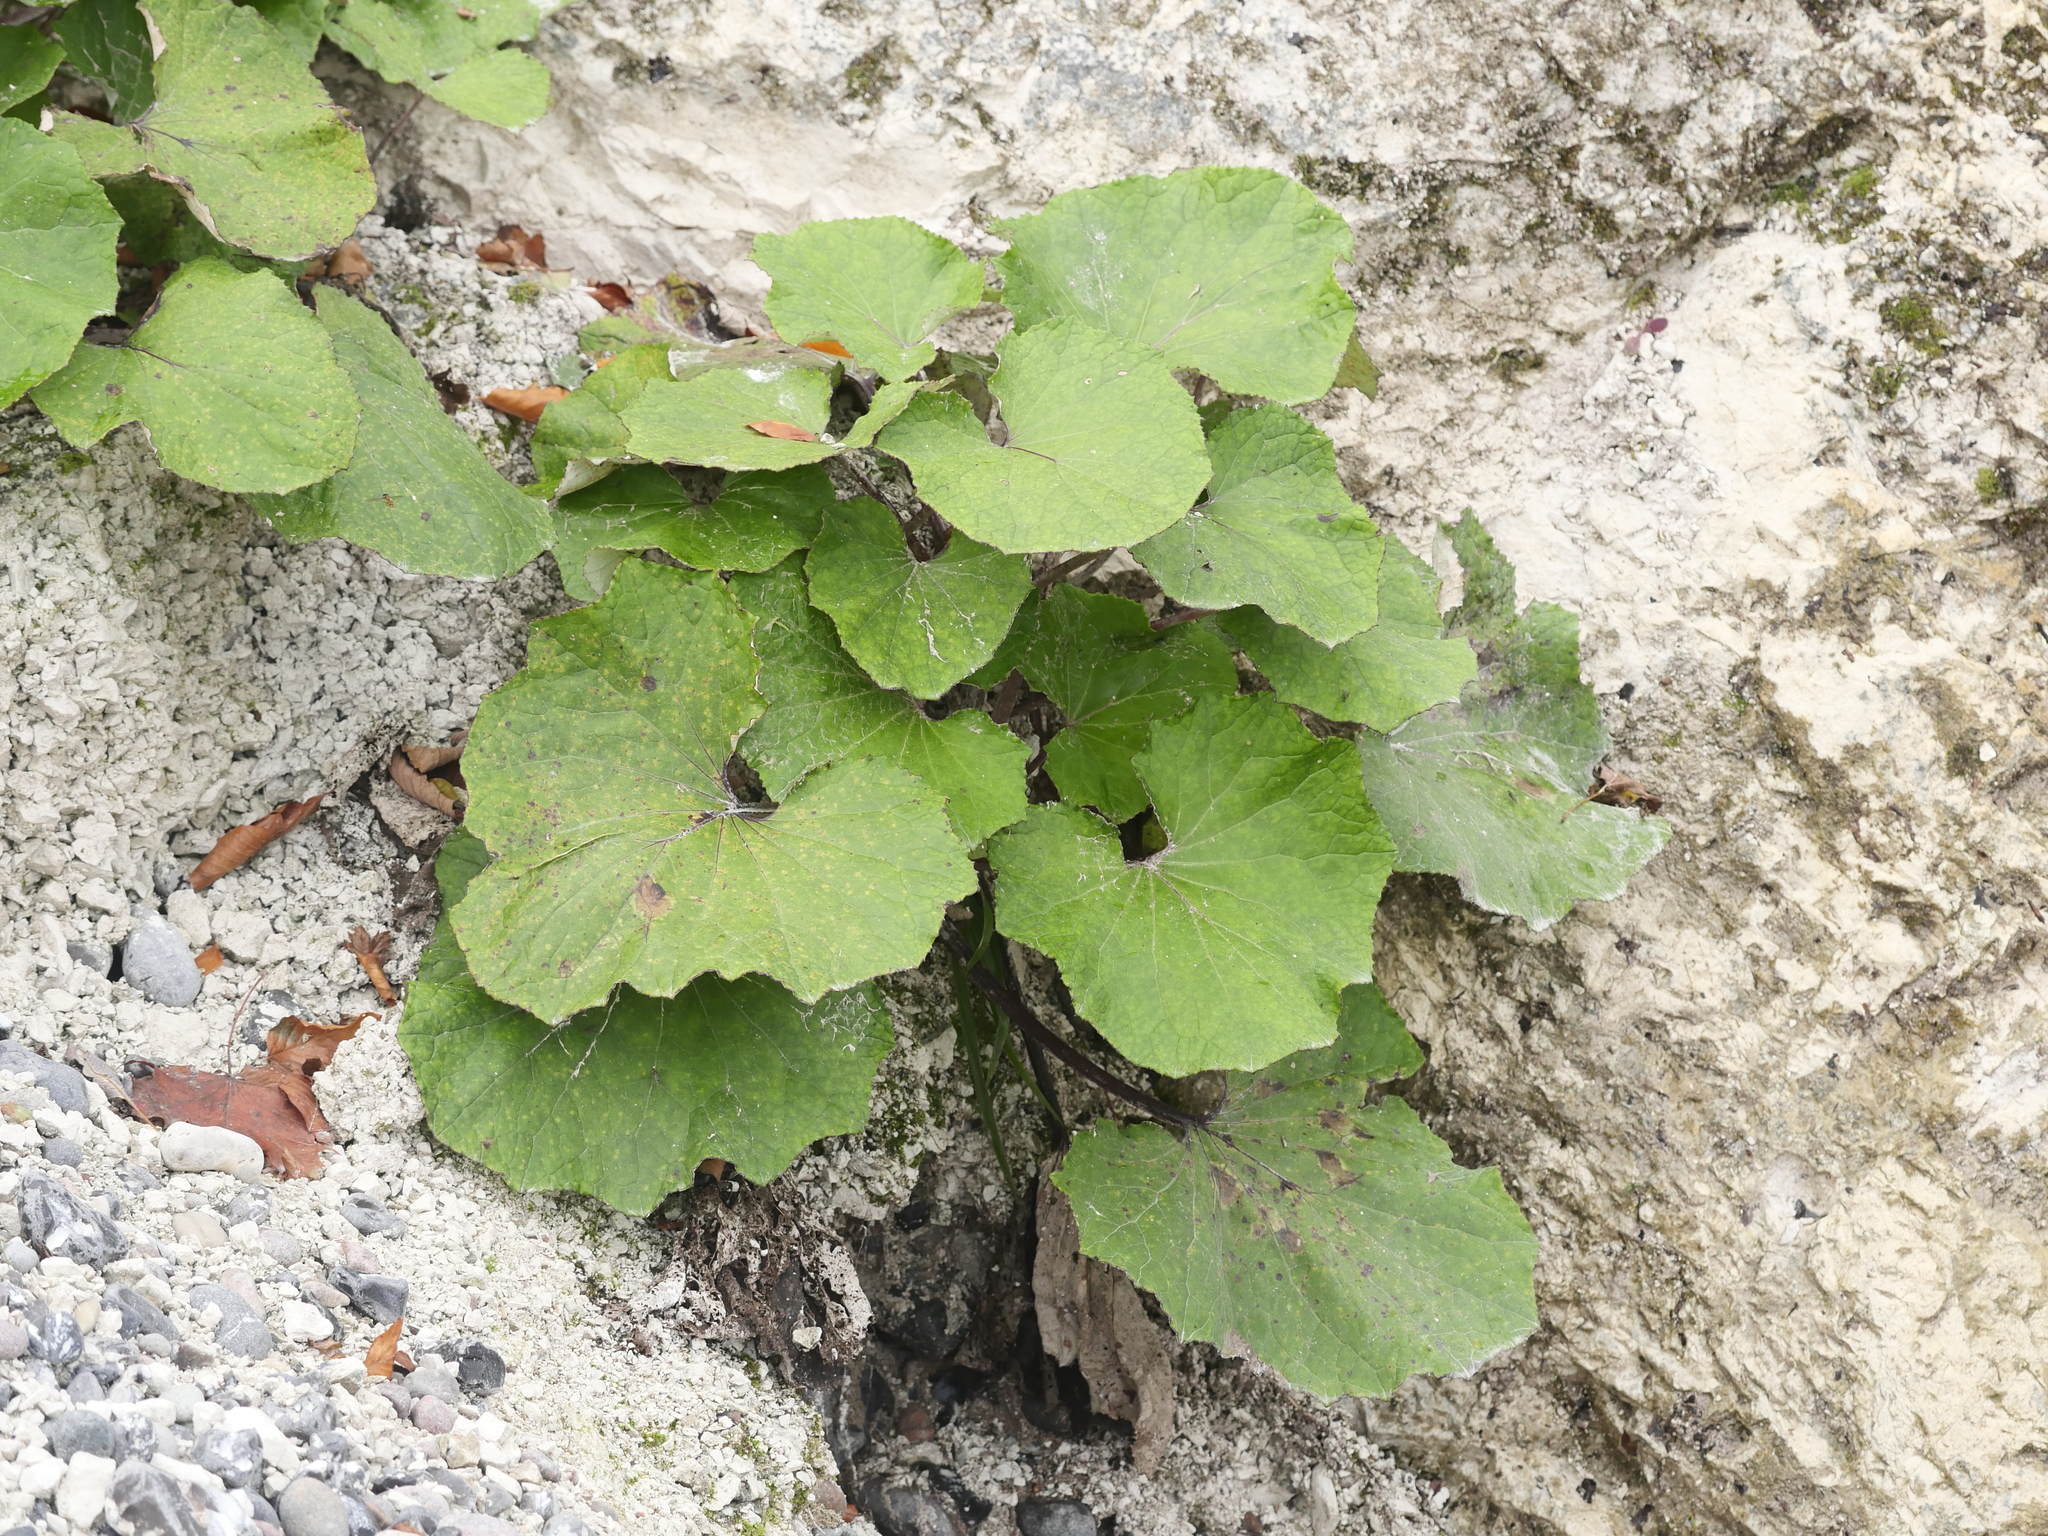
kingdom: Plantae
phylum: Tracheophyta
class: Magnoliopsida
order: Asterales
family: Asteraceae
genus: Tussilago
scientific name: Tussilago farfara
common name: Coltsfoot
